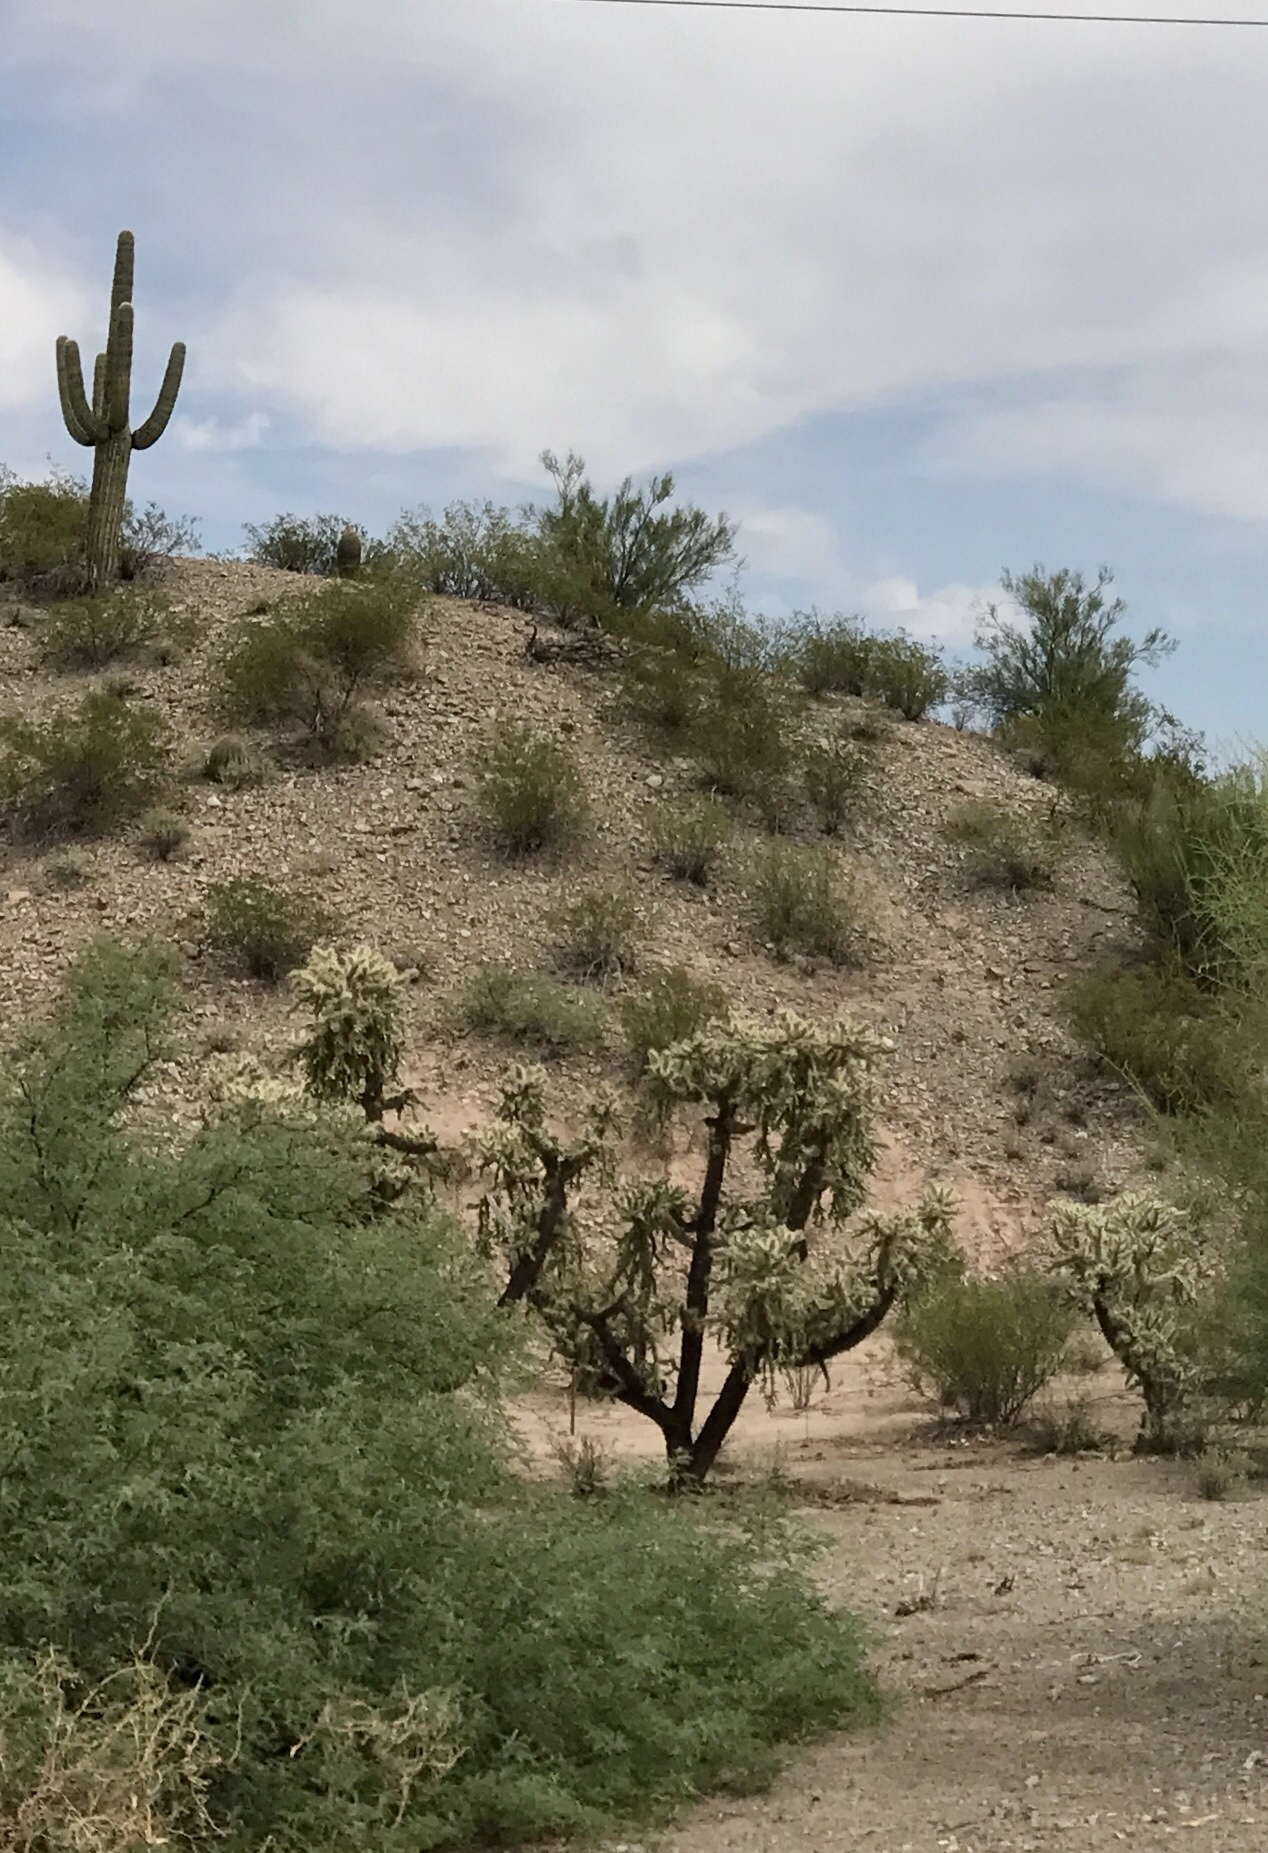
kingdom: Plantae
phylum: Tracheophyta
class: Magnoliopsida
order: Caryophyllales
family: Cactaceae
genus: Cylindropuntia
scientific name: Cylindropuntia fulgida
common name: Jumping cholla
